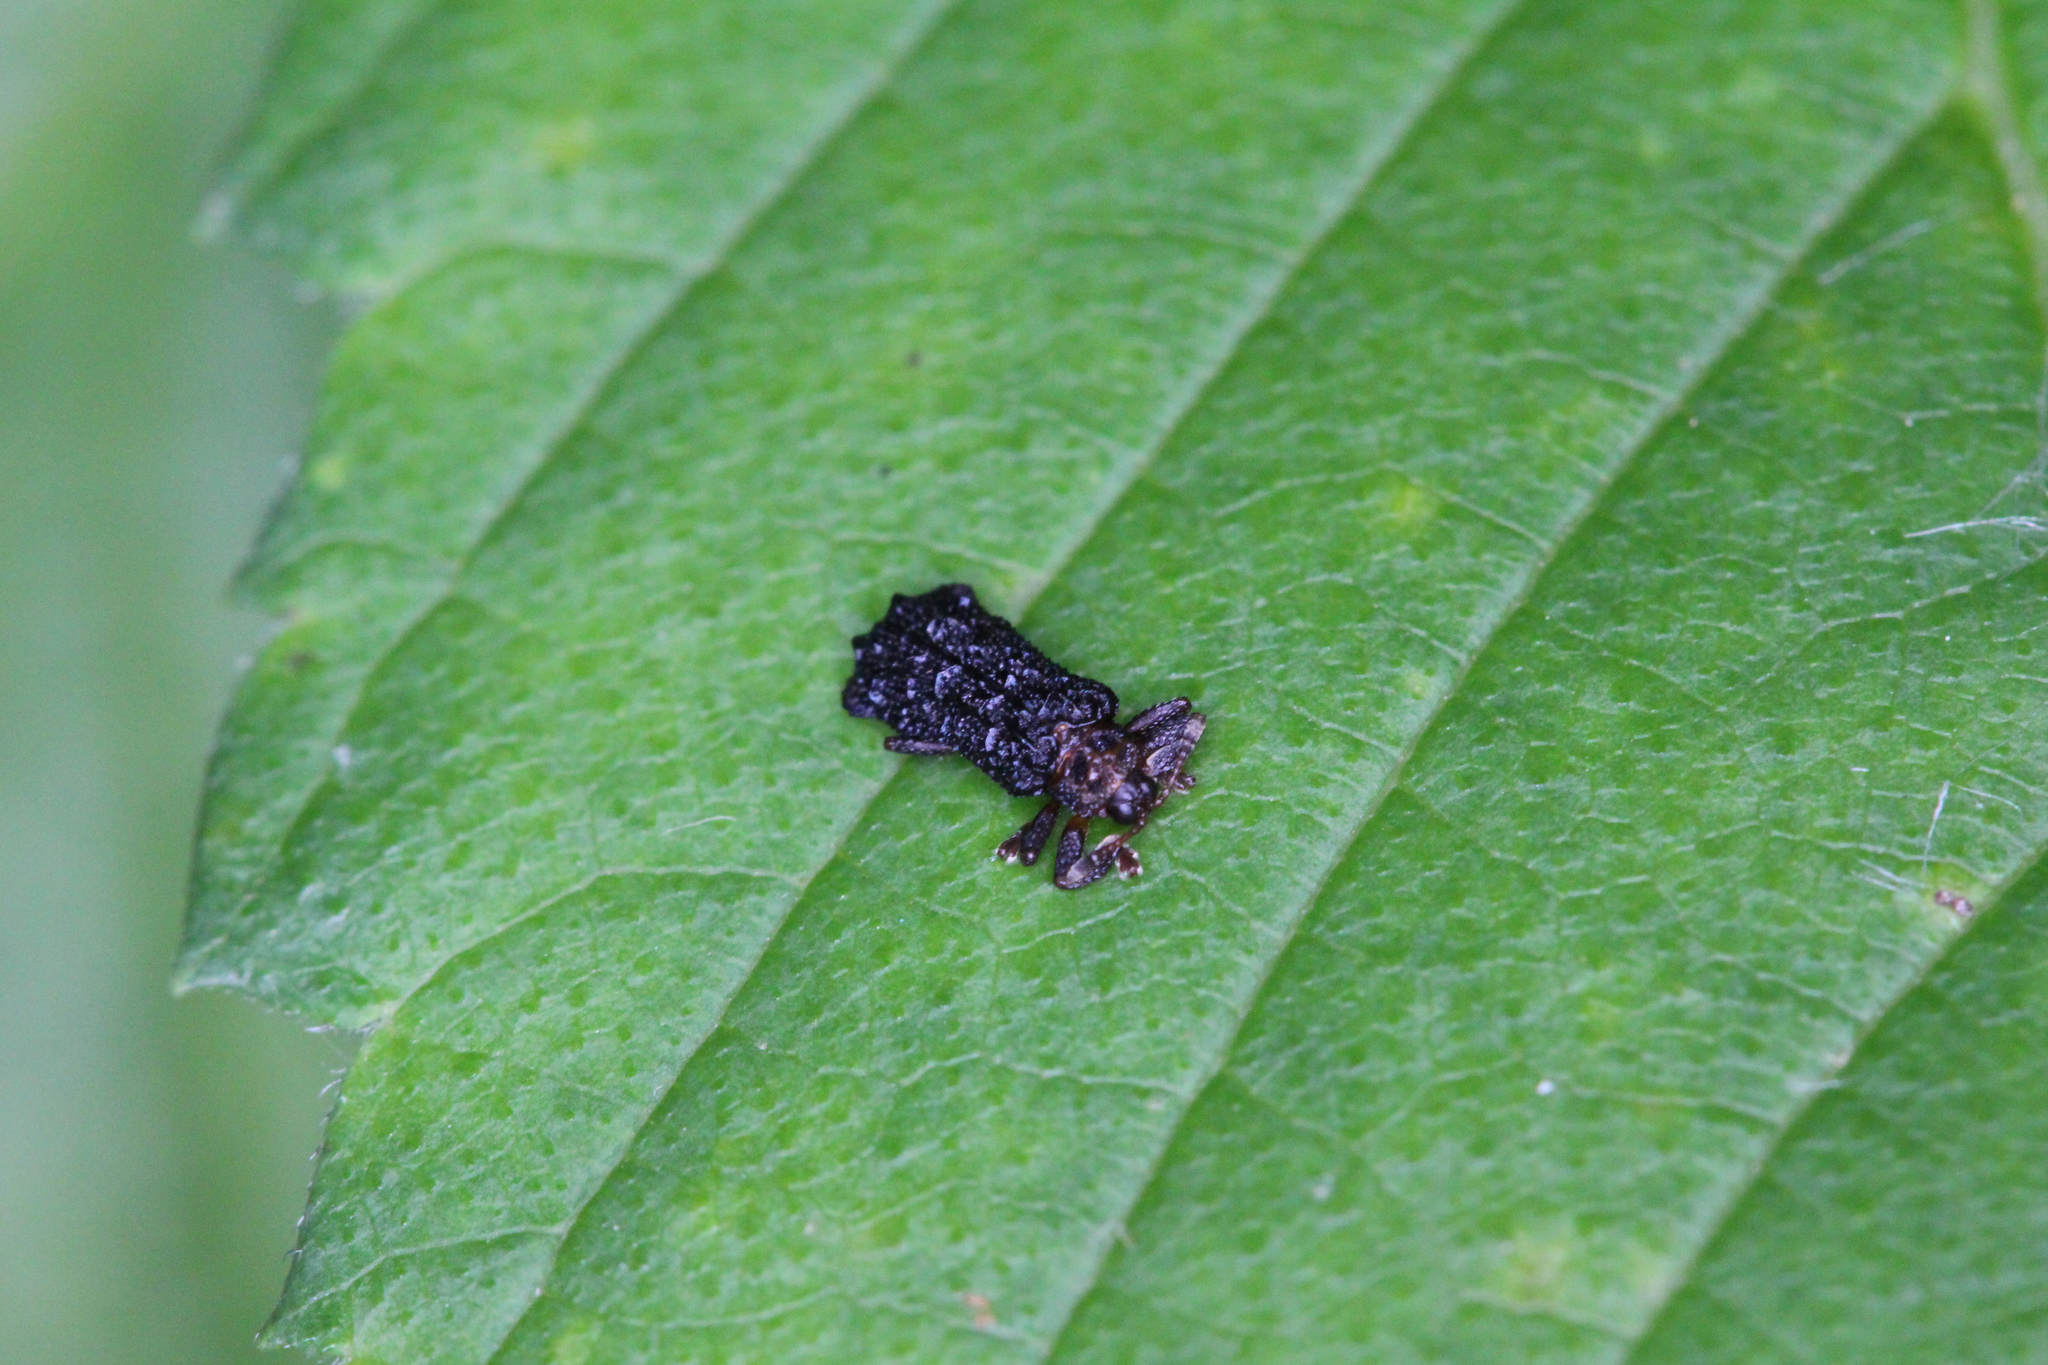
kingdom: Animalia
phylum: Arthropoda
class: Insecta
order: Coleoptera
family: Chrysomelidae
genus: Octotoma
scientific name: Octotoma plicatula
